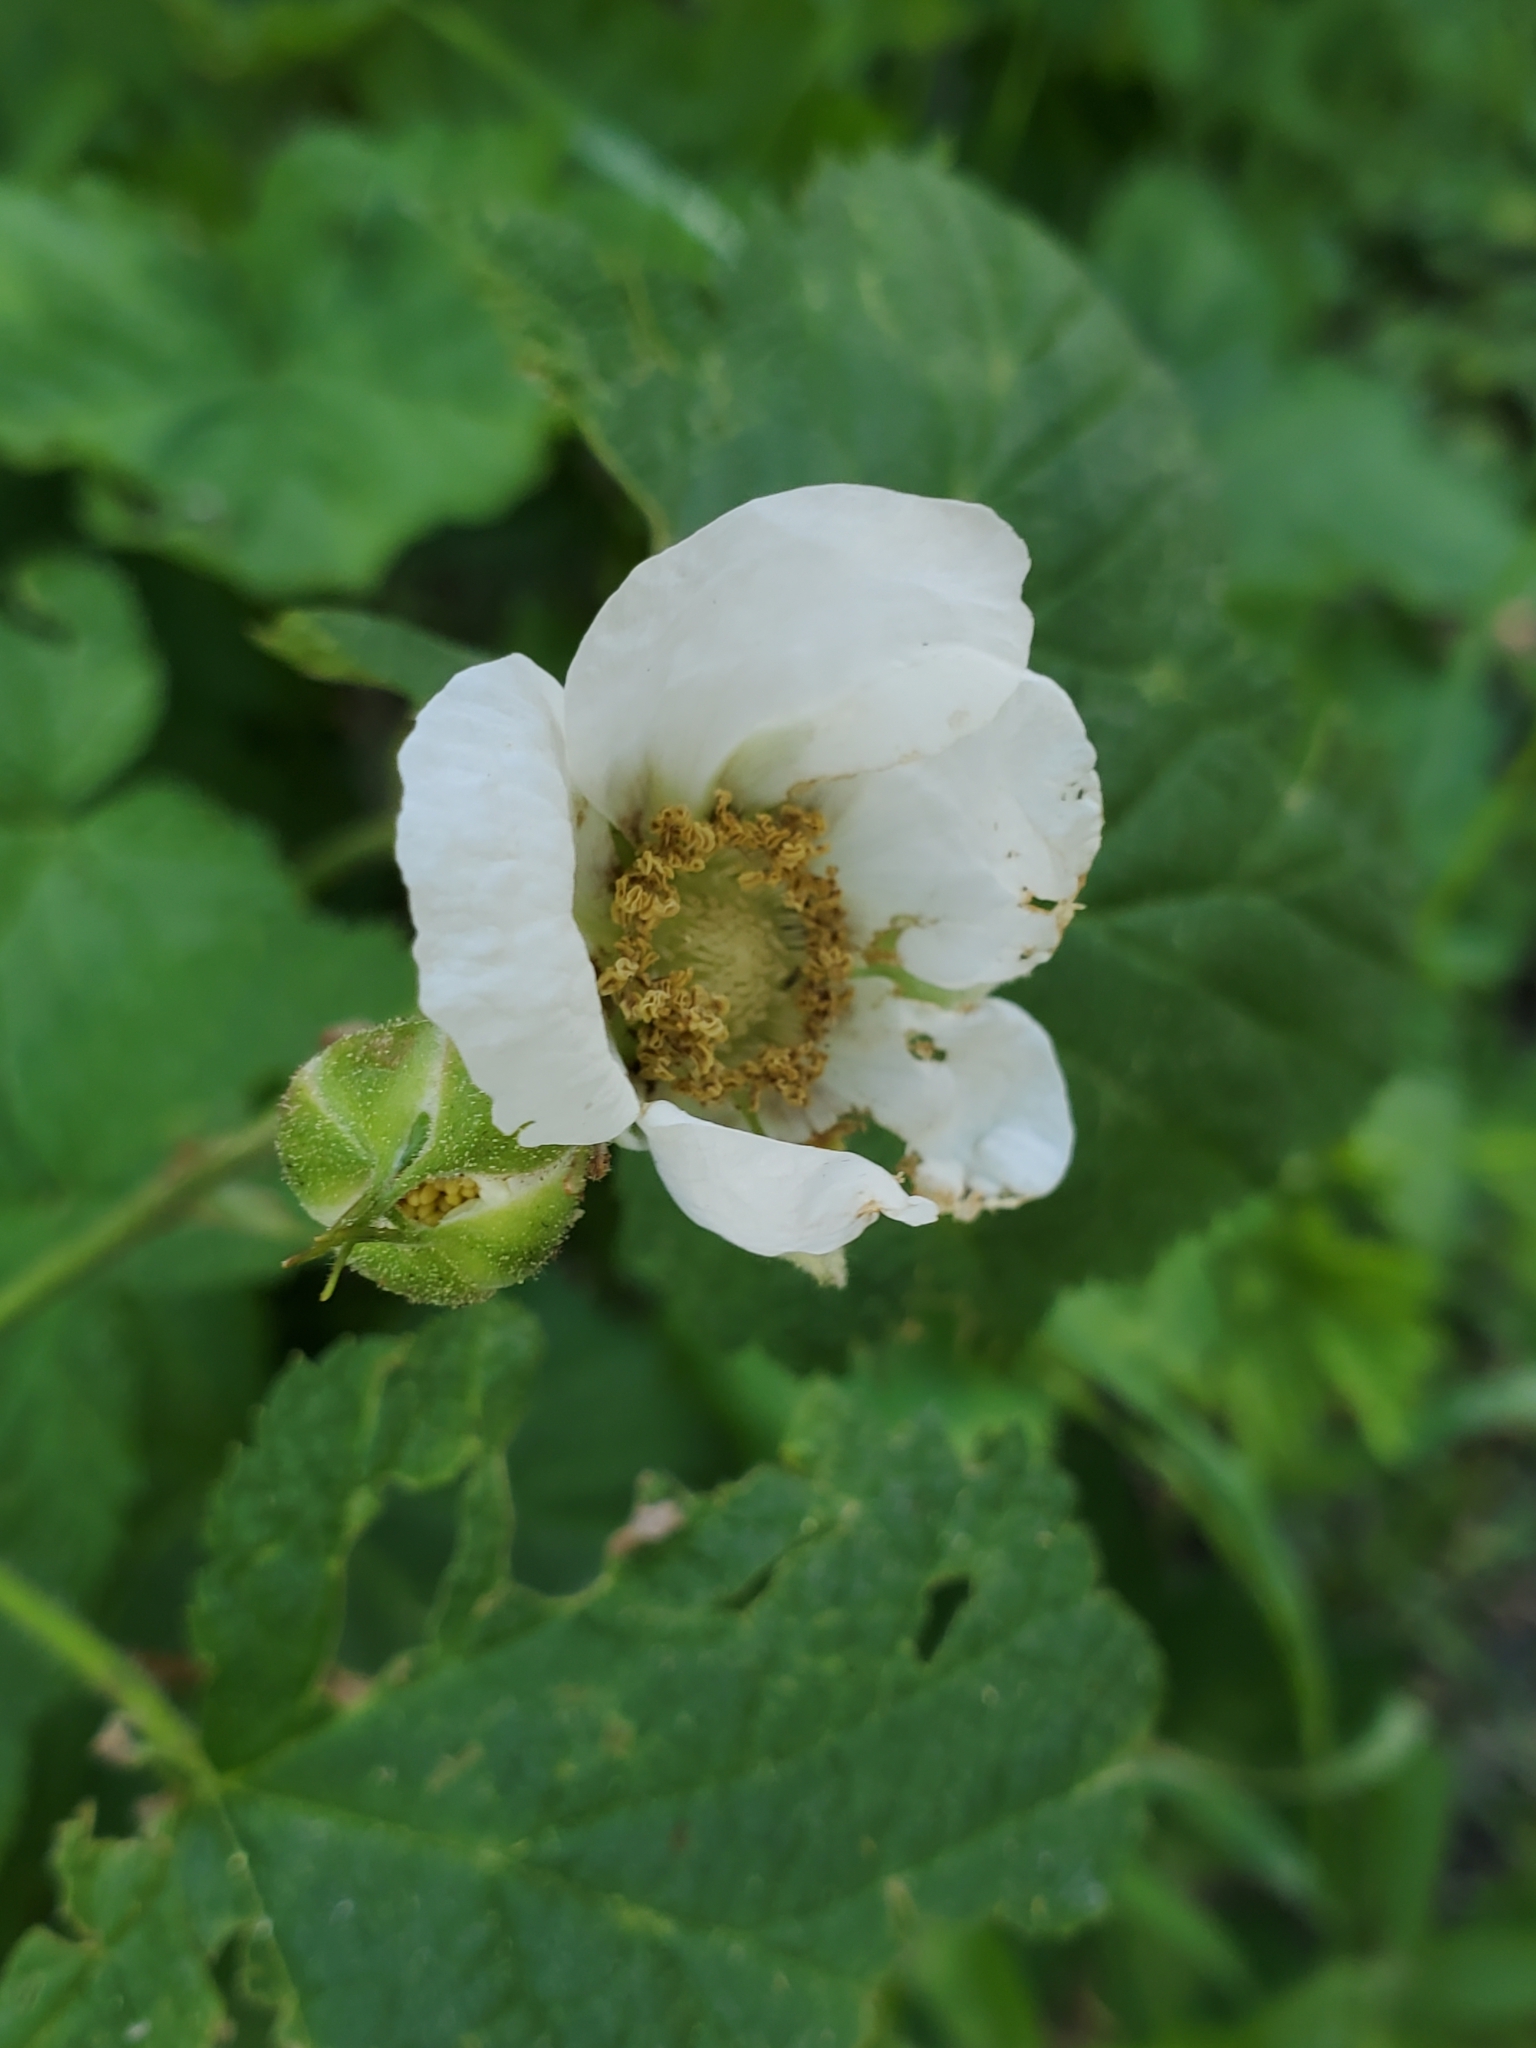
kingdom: Plantae
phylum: Tracheophyta
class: Magnoliopsida
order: Rosales
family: Rosaceae
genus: Rubus
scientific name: Rubus parviflorus
